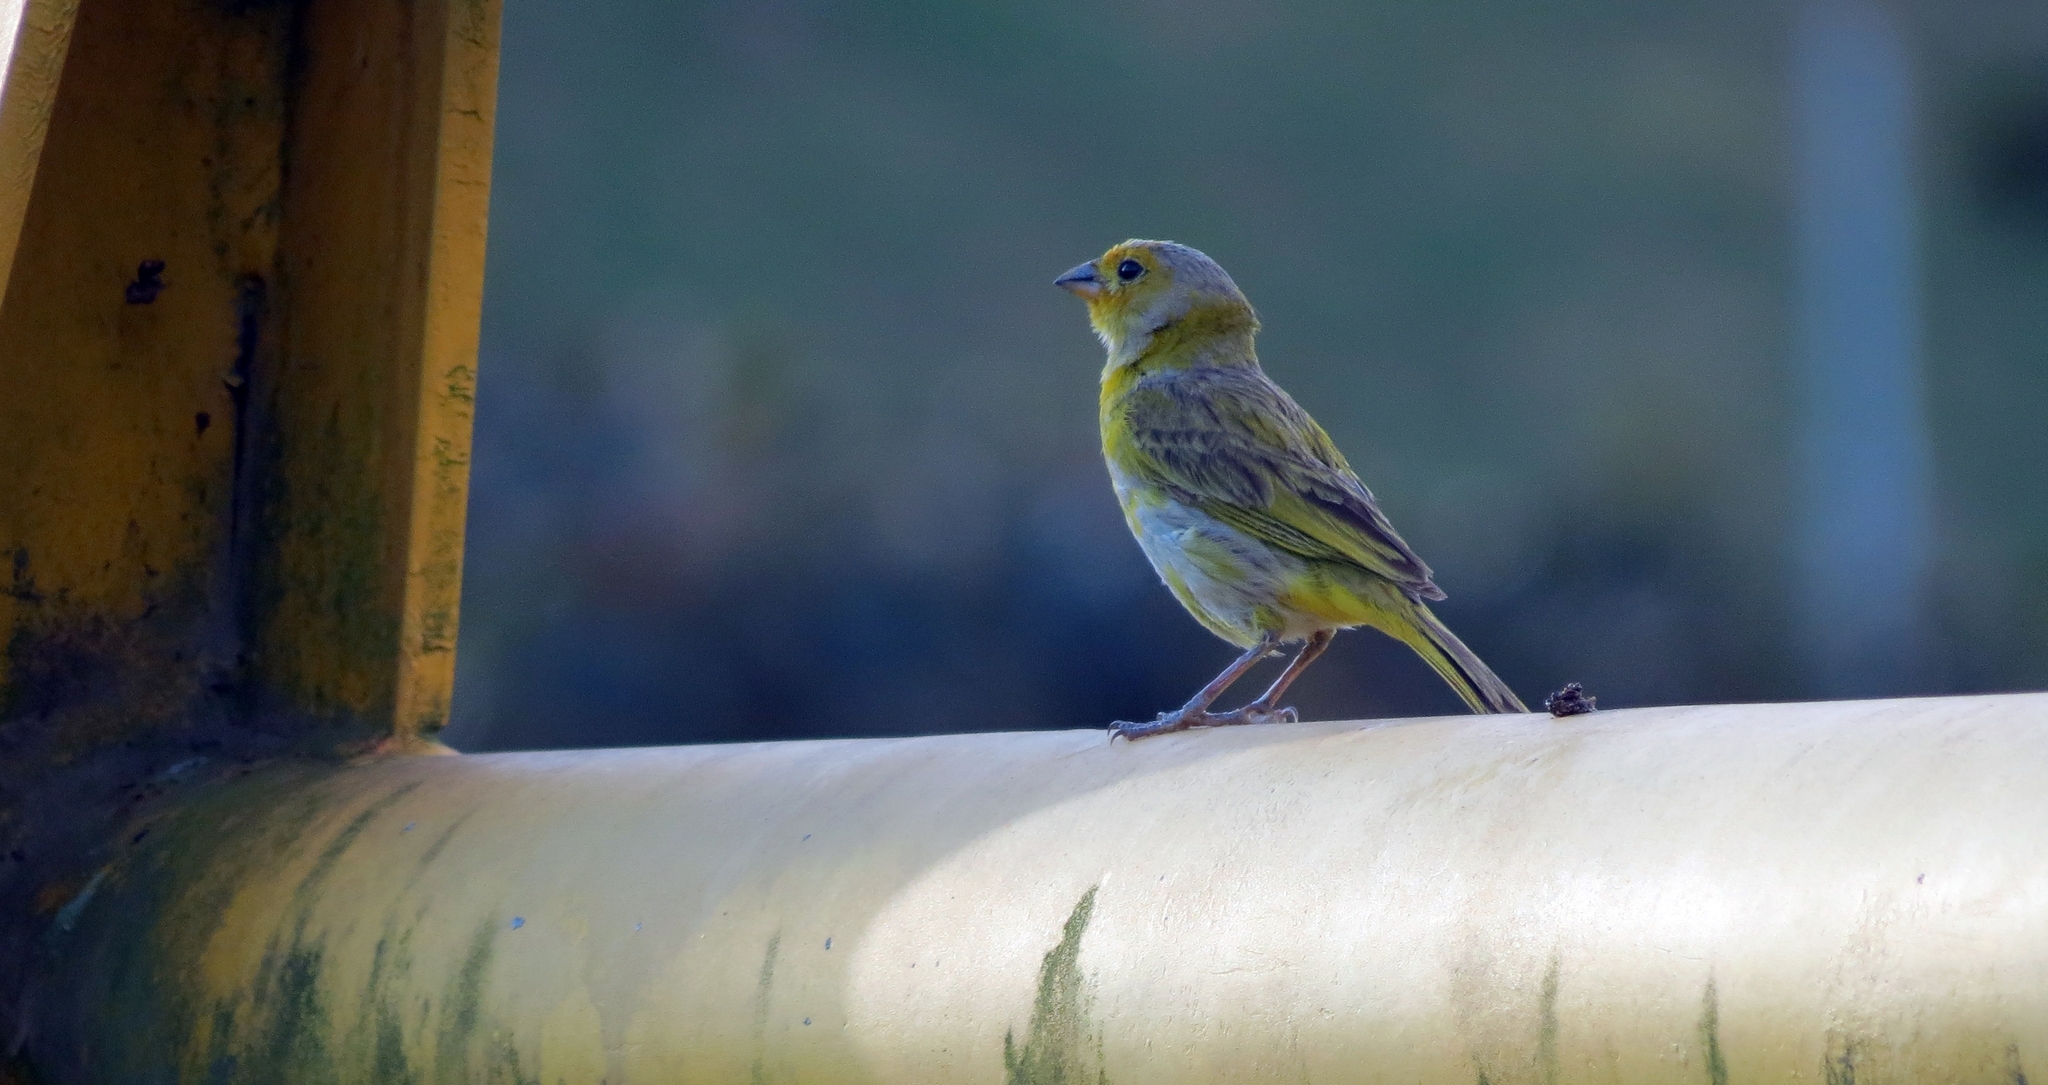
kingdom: Animalia
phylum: Chordata
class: Aves
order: Passeriformes
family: Thraupidae
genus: Sicalis
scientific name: Sicalis flaveola
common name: Saffron finch
